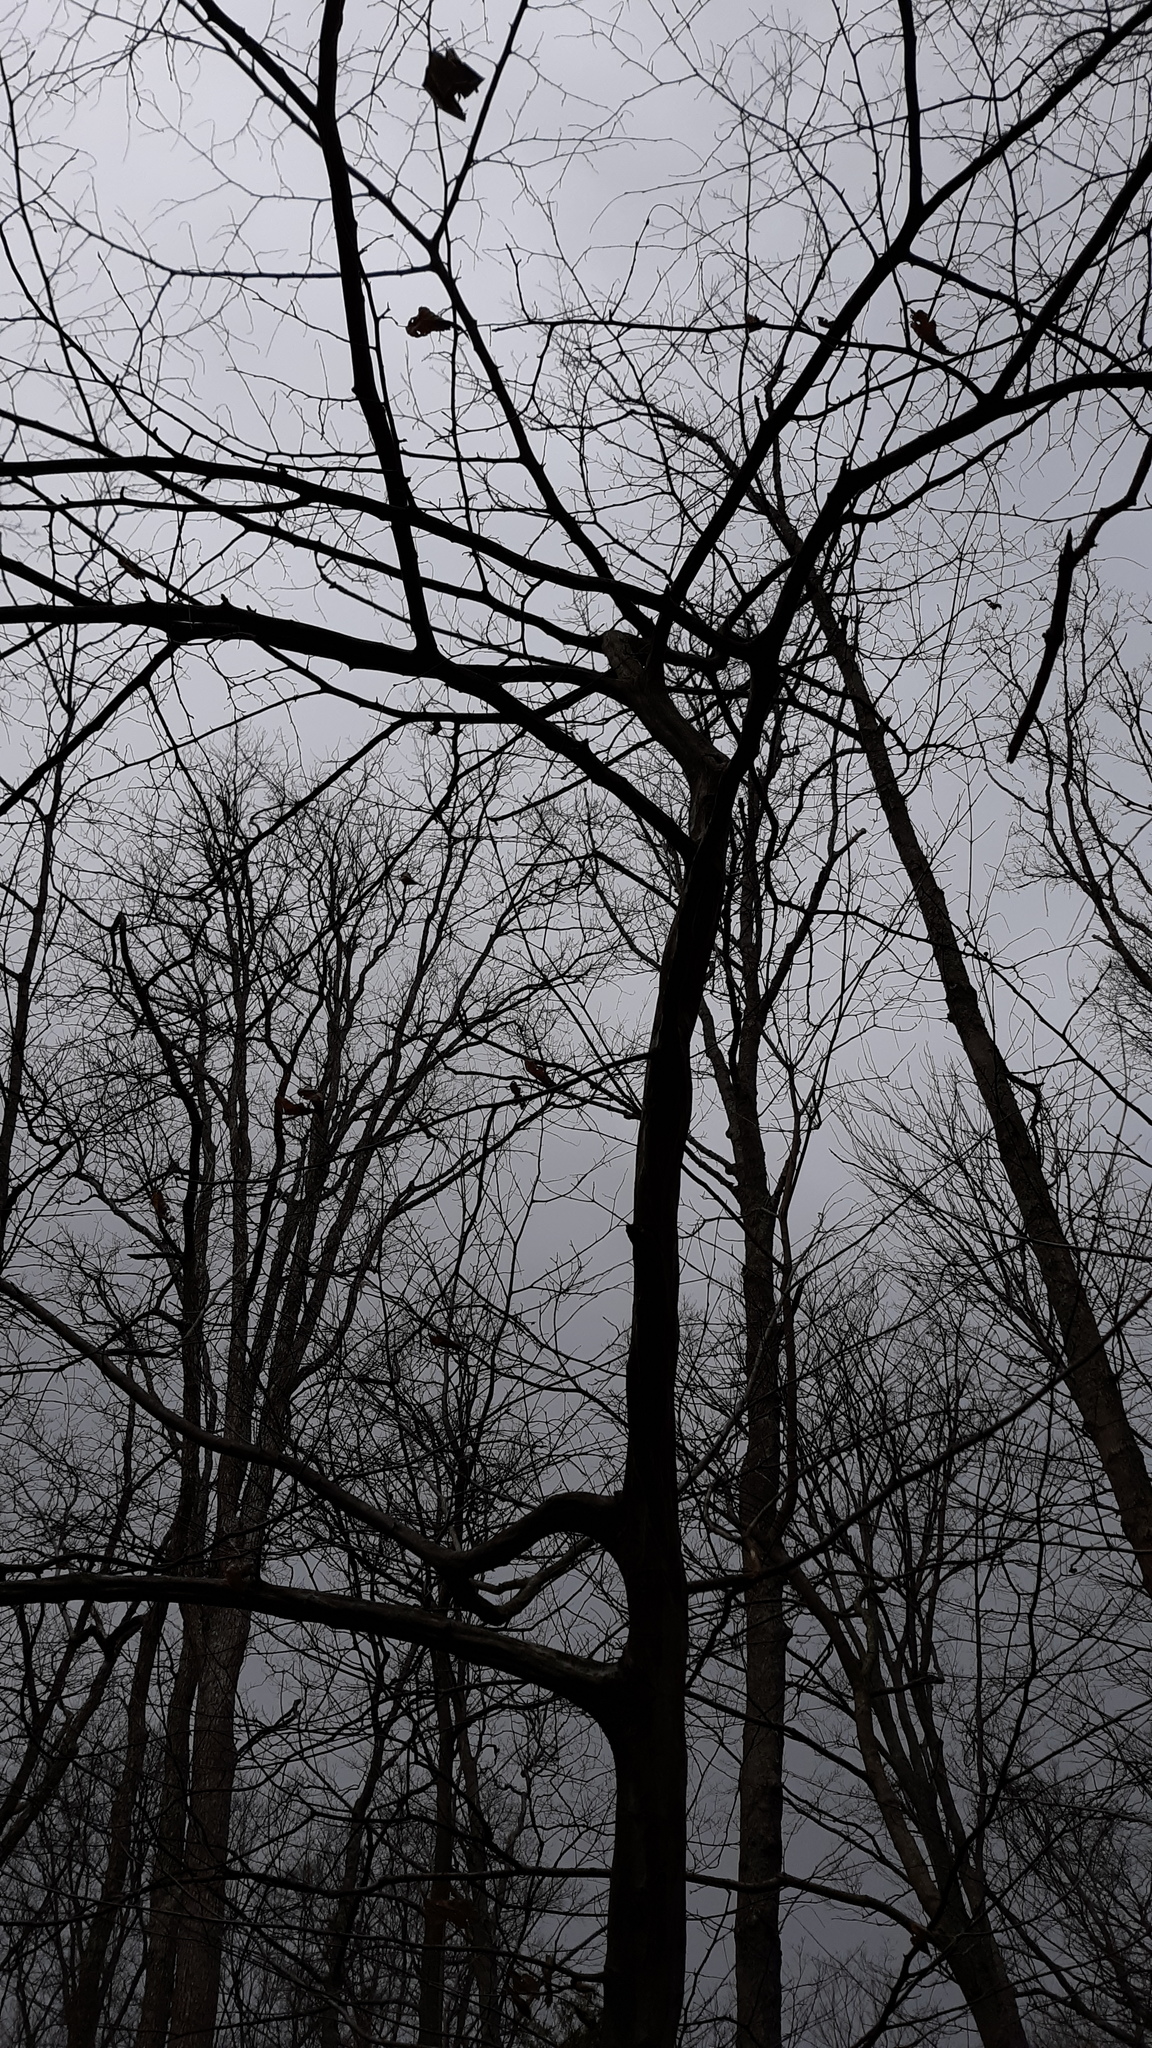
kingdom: Plantae
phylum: Tracheophyta
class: Magnoliopsida
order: Fagales
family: Betulaceae
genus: Carpinus
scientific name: Carpinus caroliniana
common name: American hornbeam
